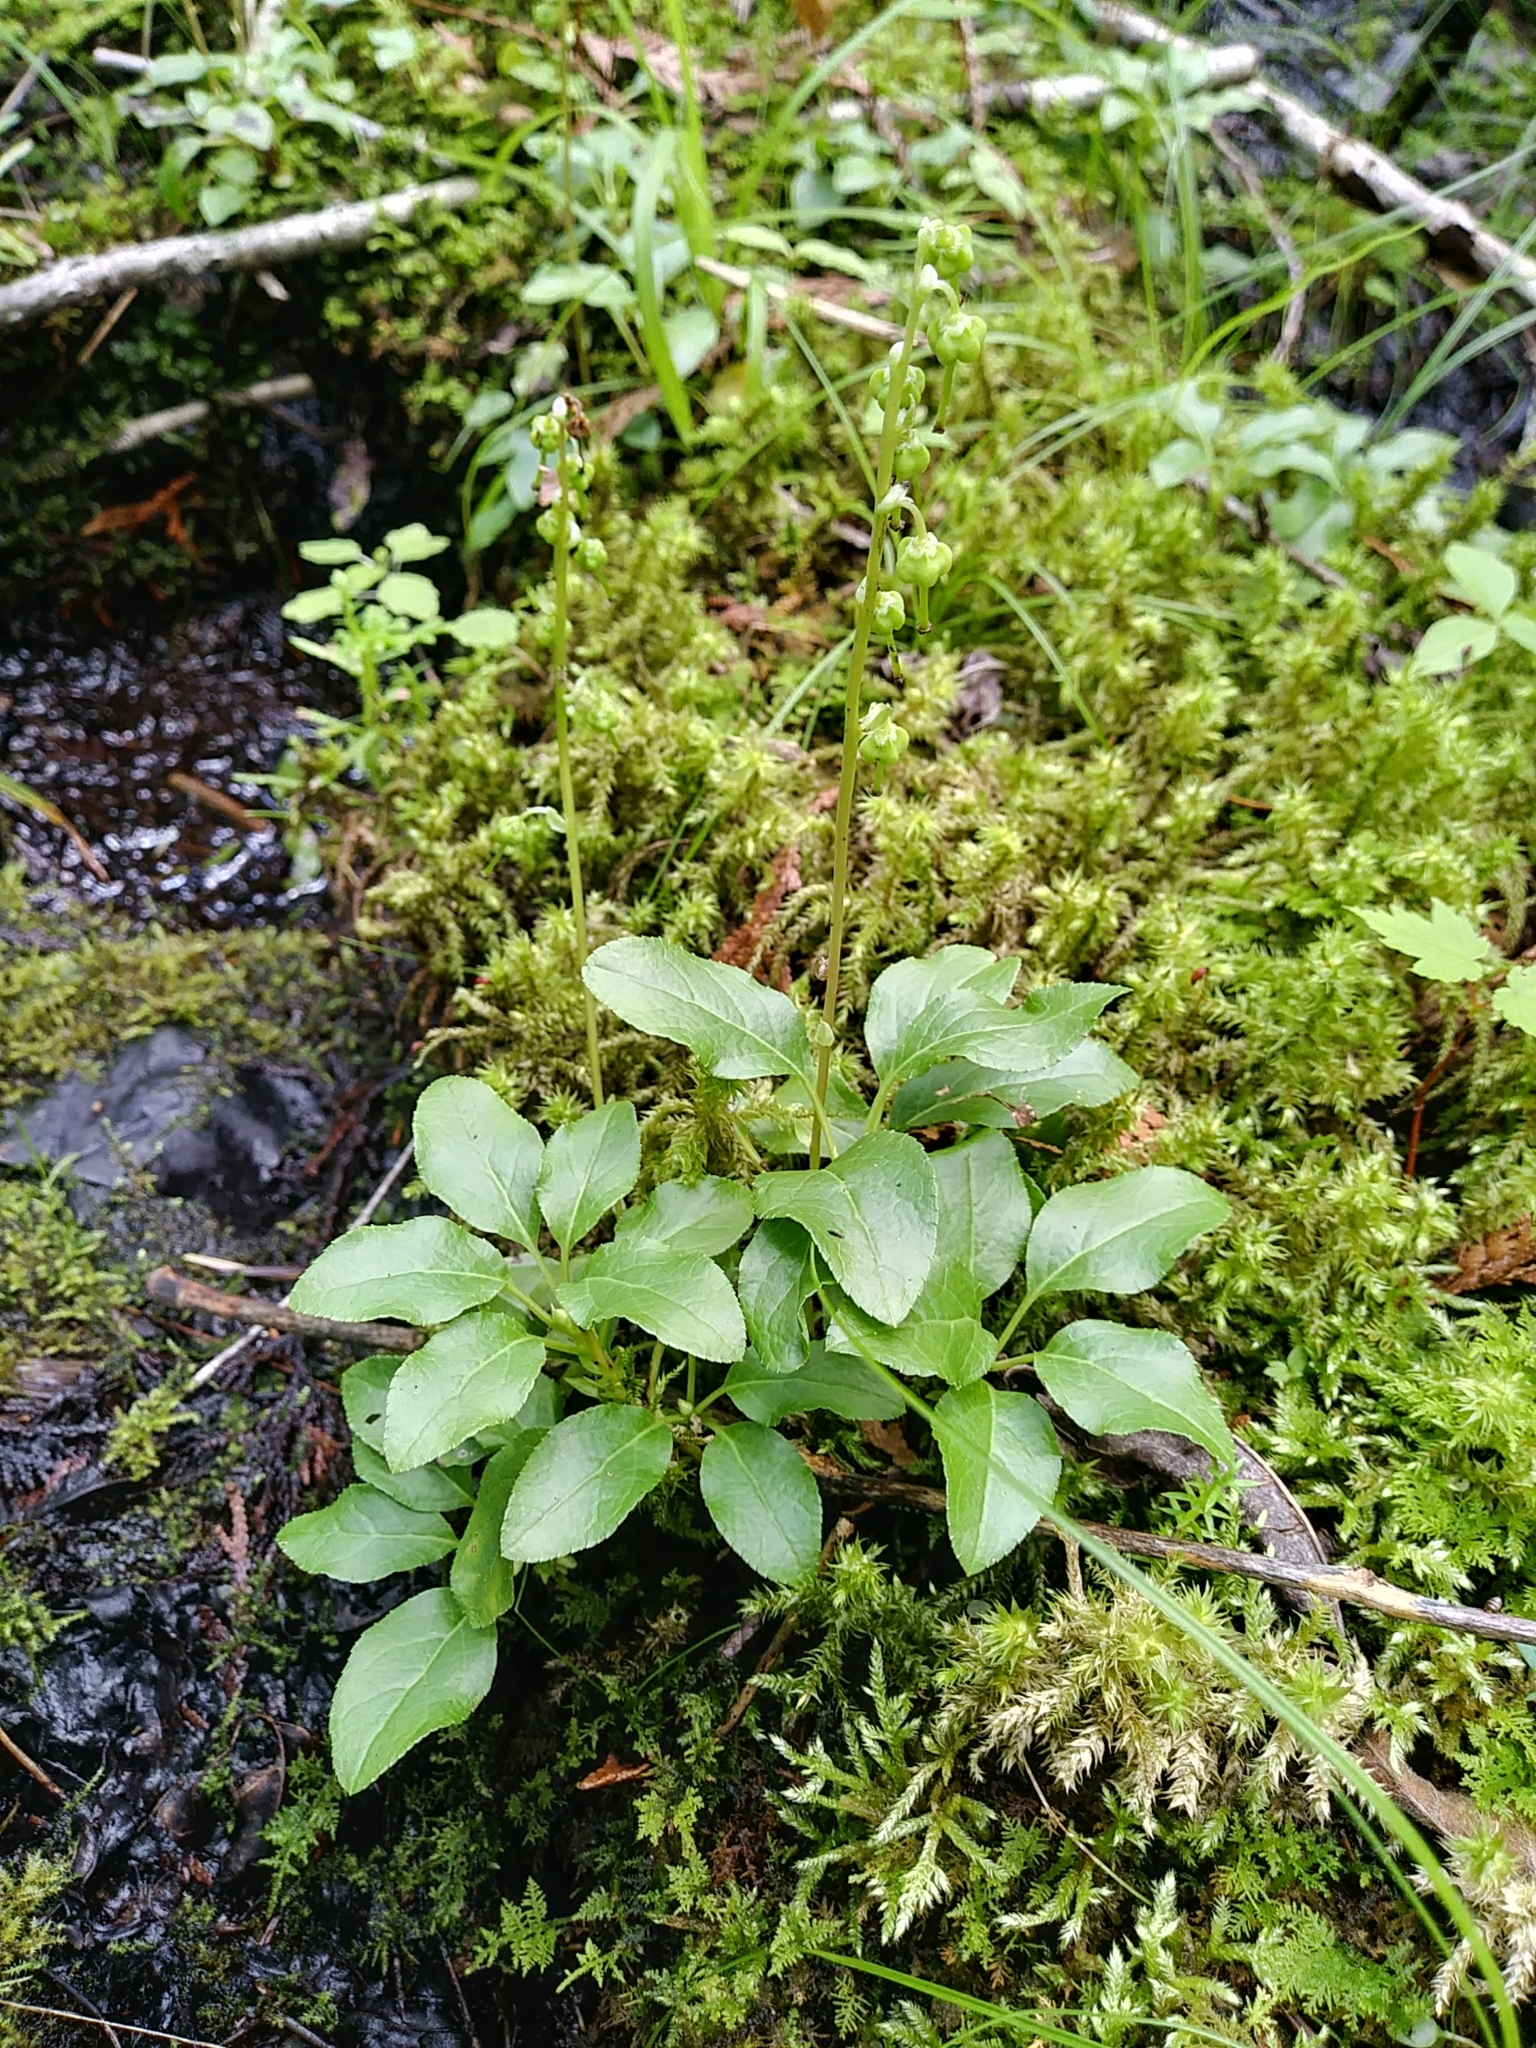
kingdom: Plantae
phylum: Tracheophyta
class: Magnoliopsida
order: Ericales
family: Ericaceae
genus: Orthilia
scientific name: Orthilia secunda
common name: One-sided orthilia
